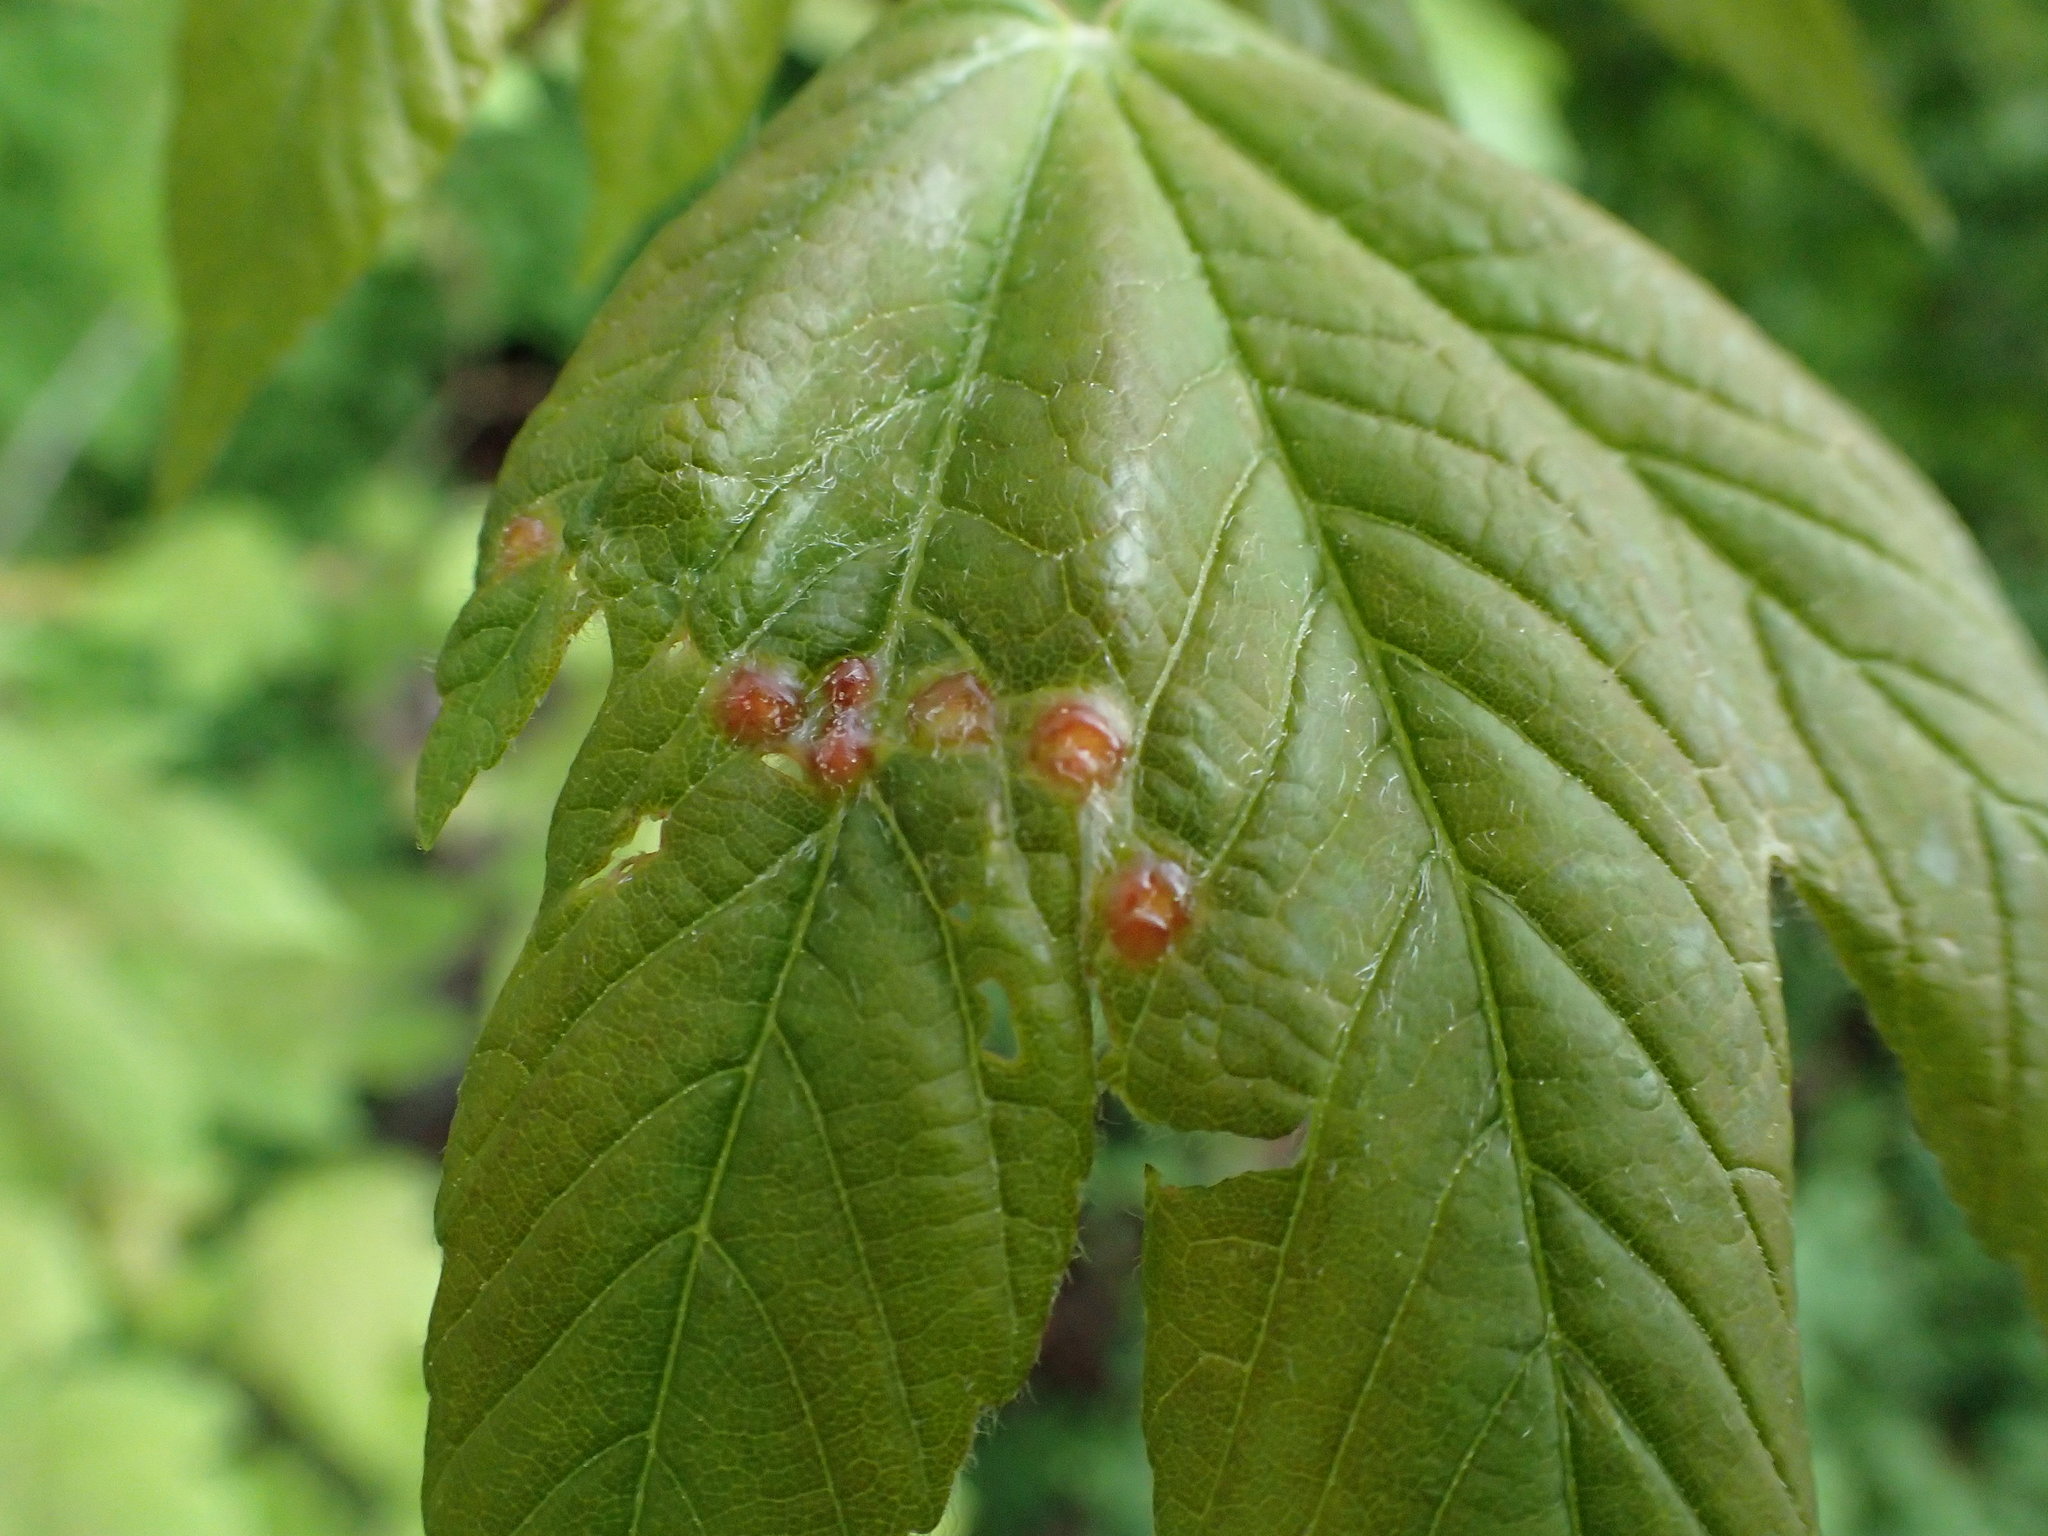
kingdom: Animalia
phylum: Arthropoda
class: Insecta
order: Hymenoptera
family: Cynipidae
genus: Pediaspis
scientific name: Pediaspis aceris
